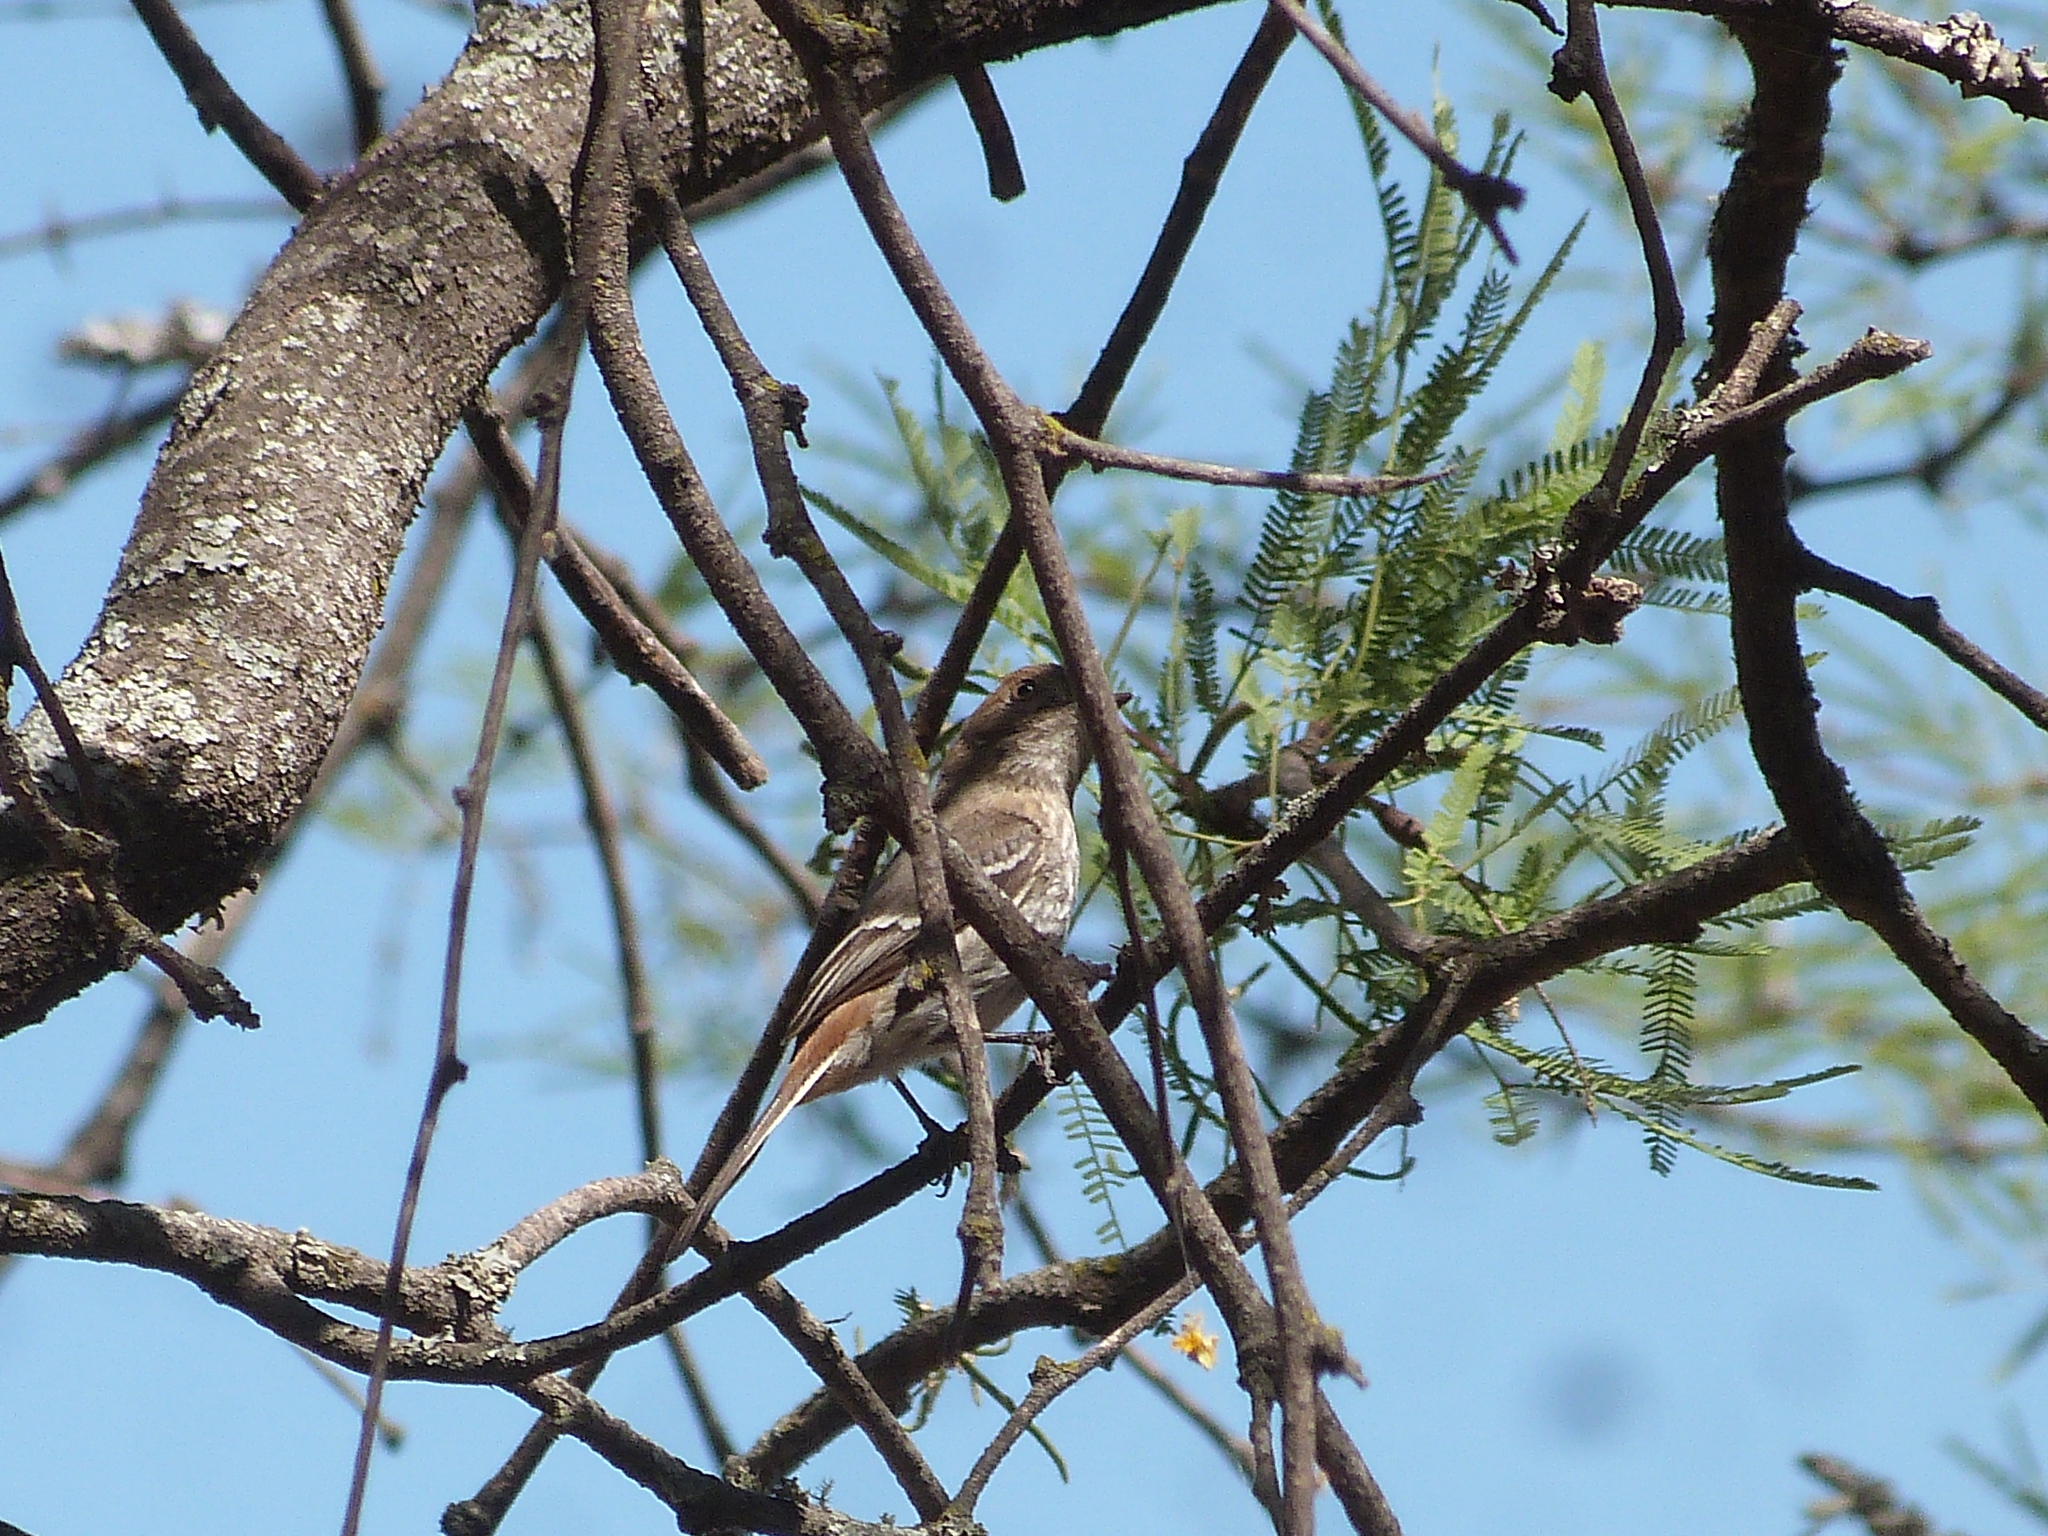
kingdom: Animalia
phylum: Chordata
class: Aves
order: Passeriformes
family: Tyrannidae
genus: Knipolegus
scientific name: Knipolegus striaticeps
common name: Cinereous tyrant
